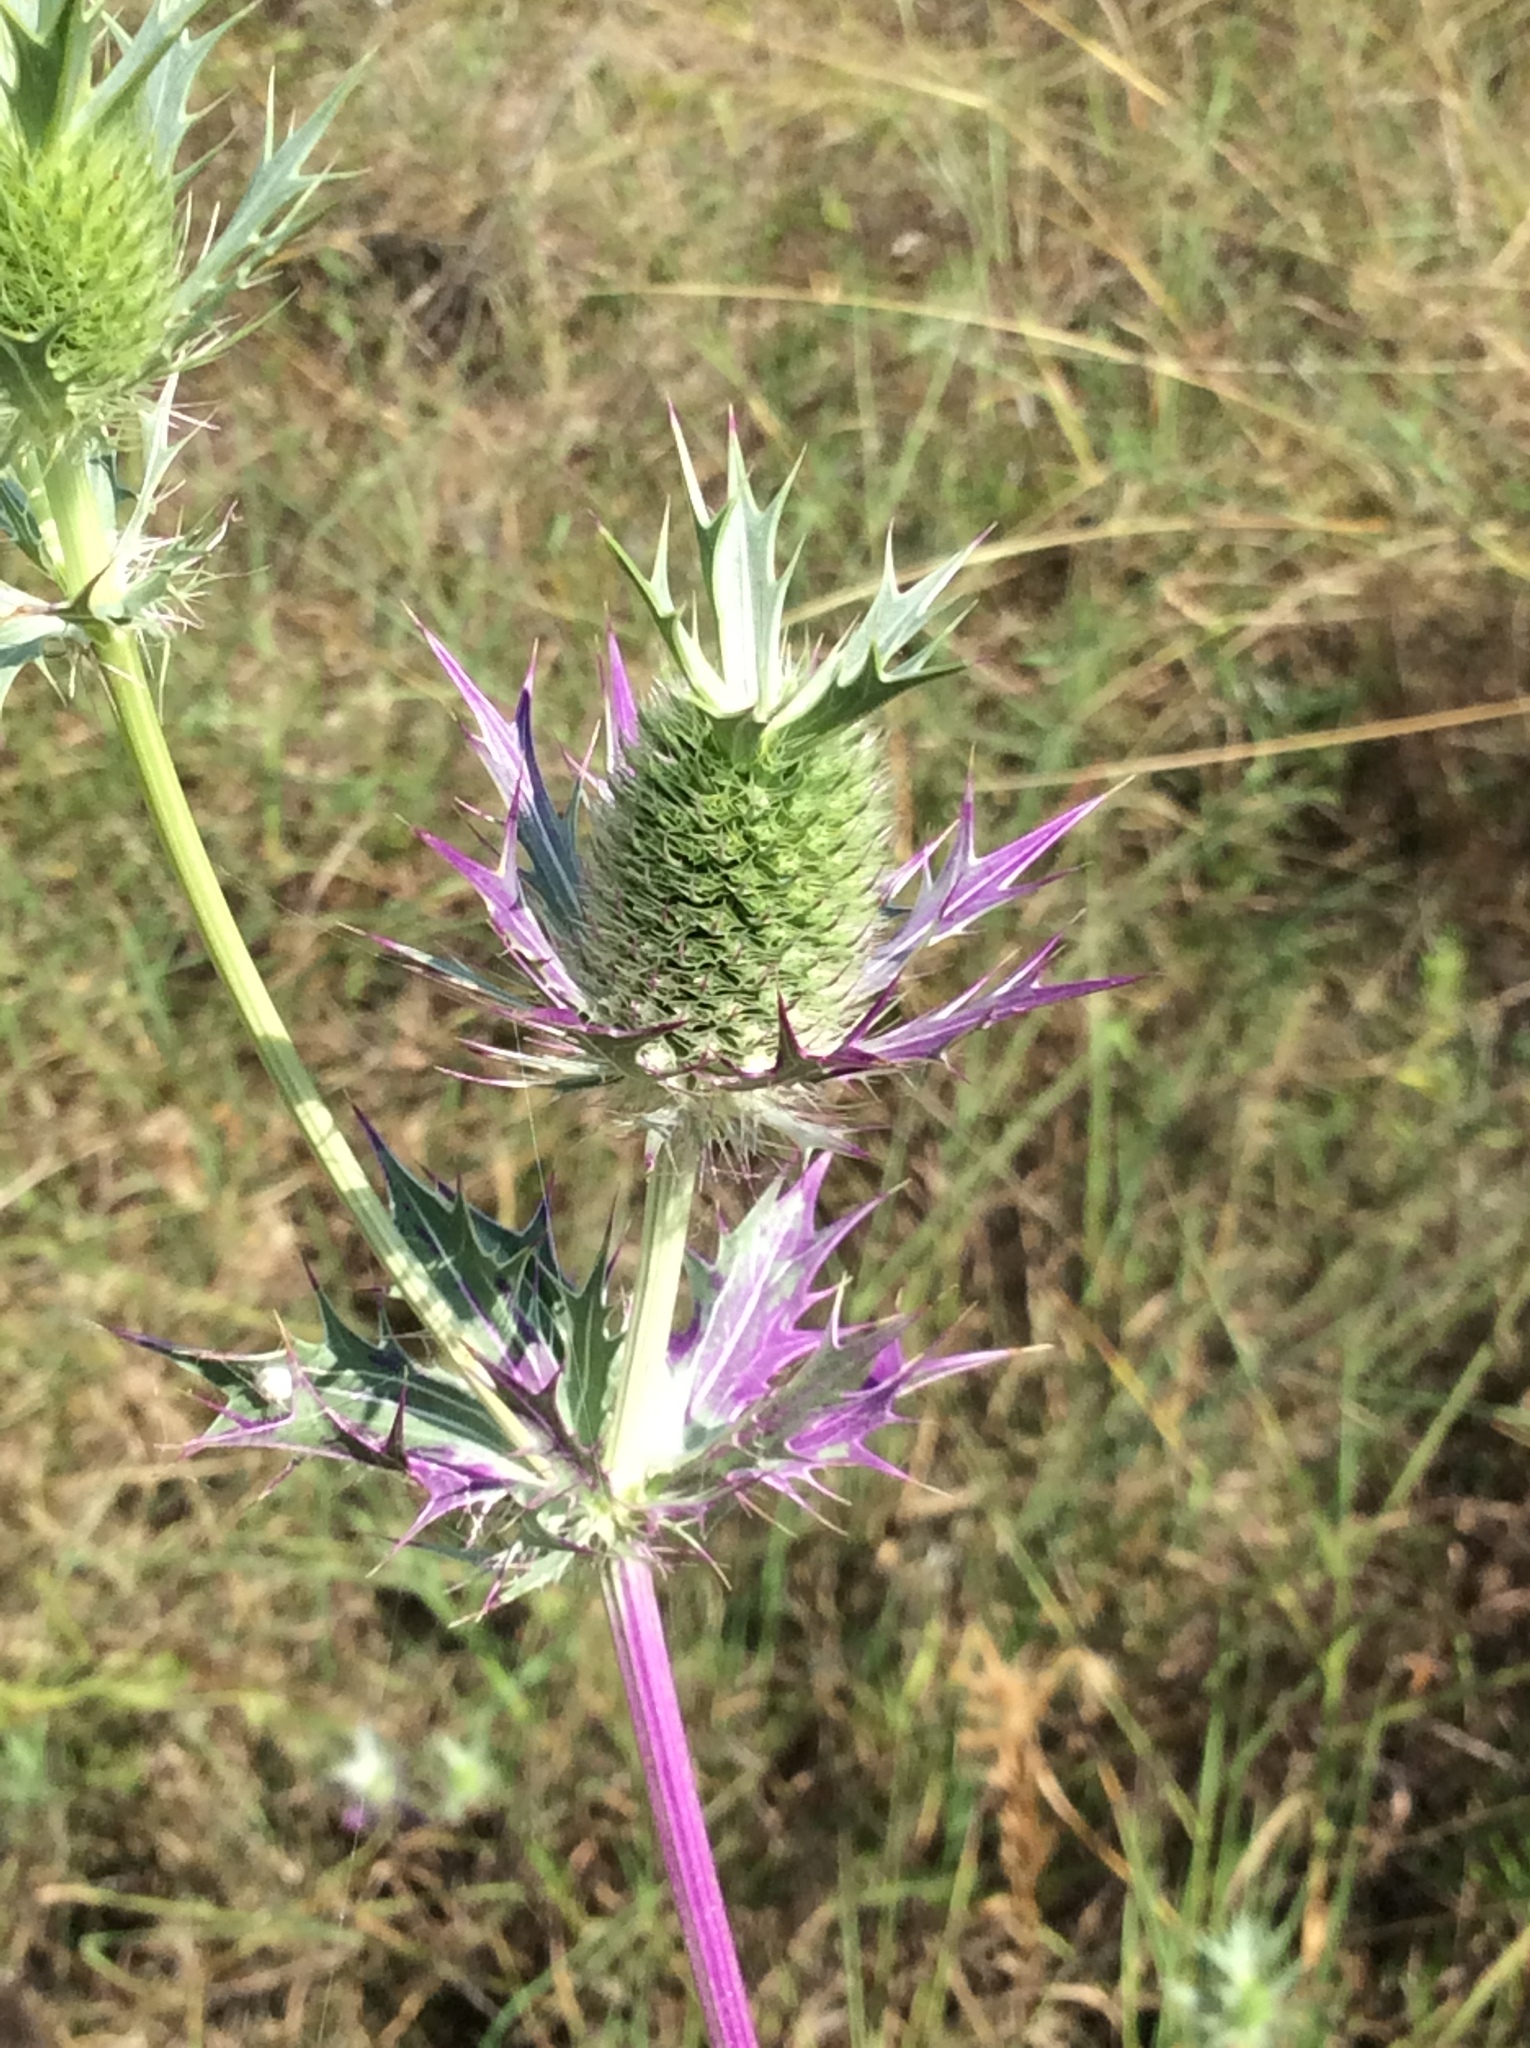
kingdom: Plantae
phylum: Tracheophyta
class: Magnoliopsida
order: Apiales
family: Apiaceae
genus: Eryngium
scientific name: Eryngium leavenworthii
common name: Leavenworth's eryngo
